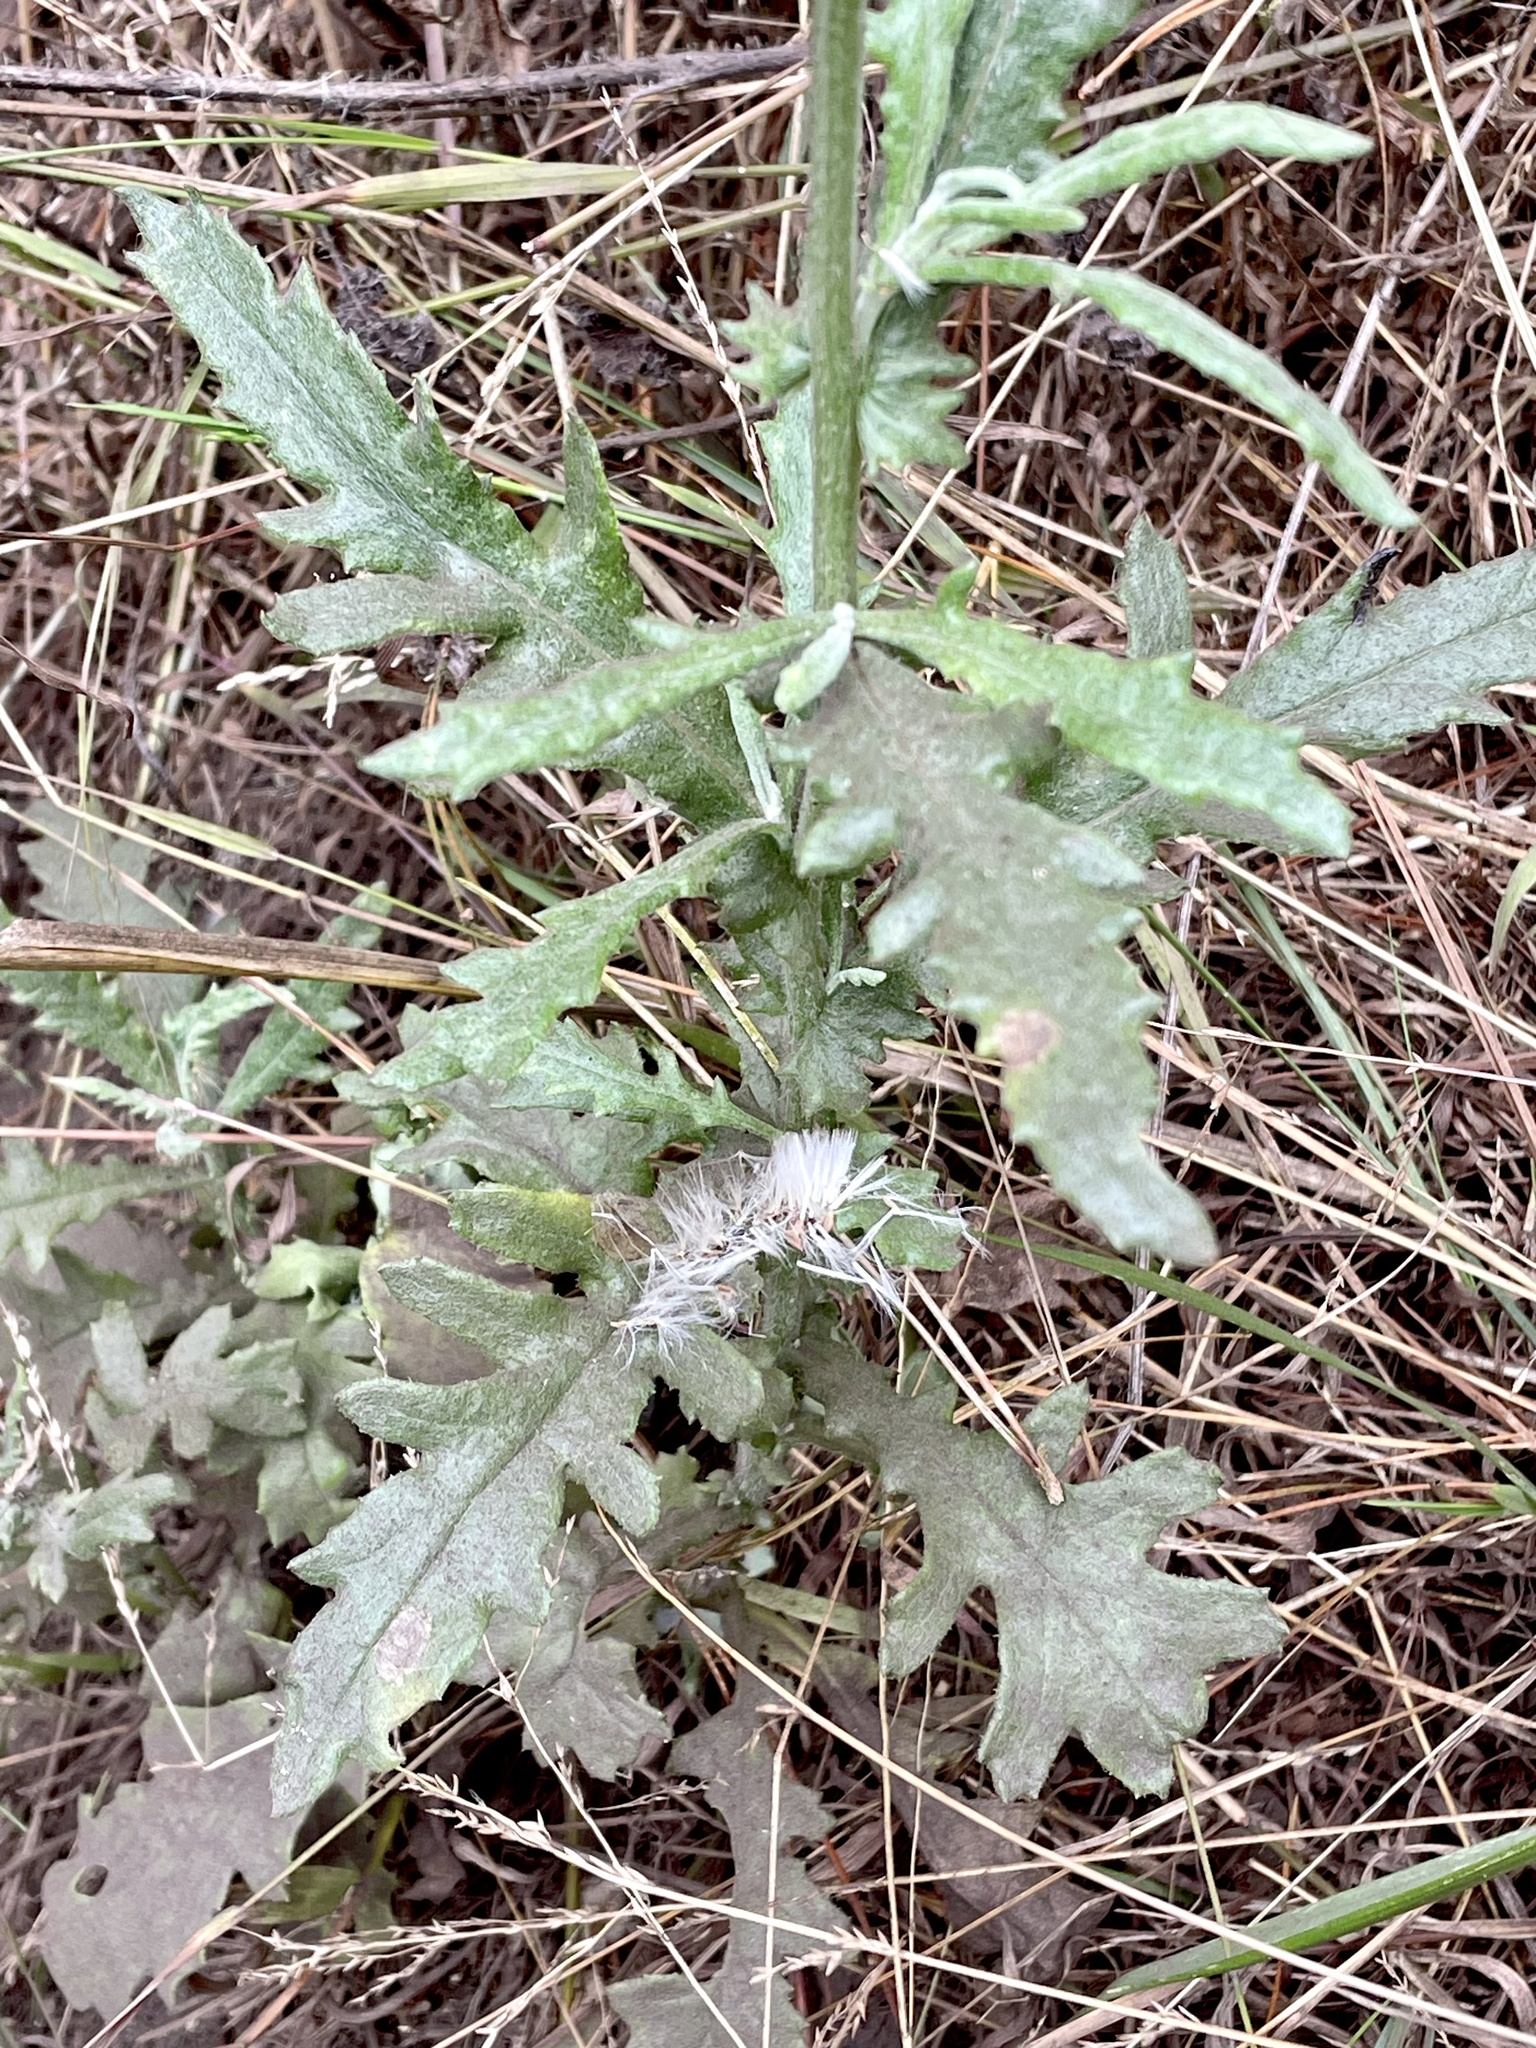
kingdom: Plantae
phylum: Tracheophyta
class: Magnoliopsida
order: Asterales
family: Asteraceae
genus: Senecio
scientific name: Senecio glomeratus
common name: Cutleaf burnweed
